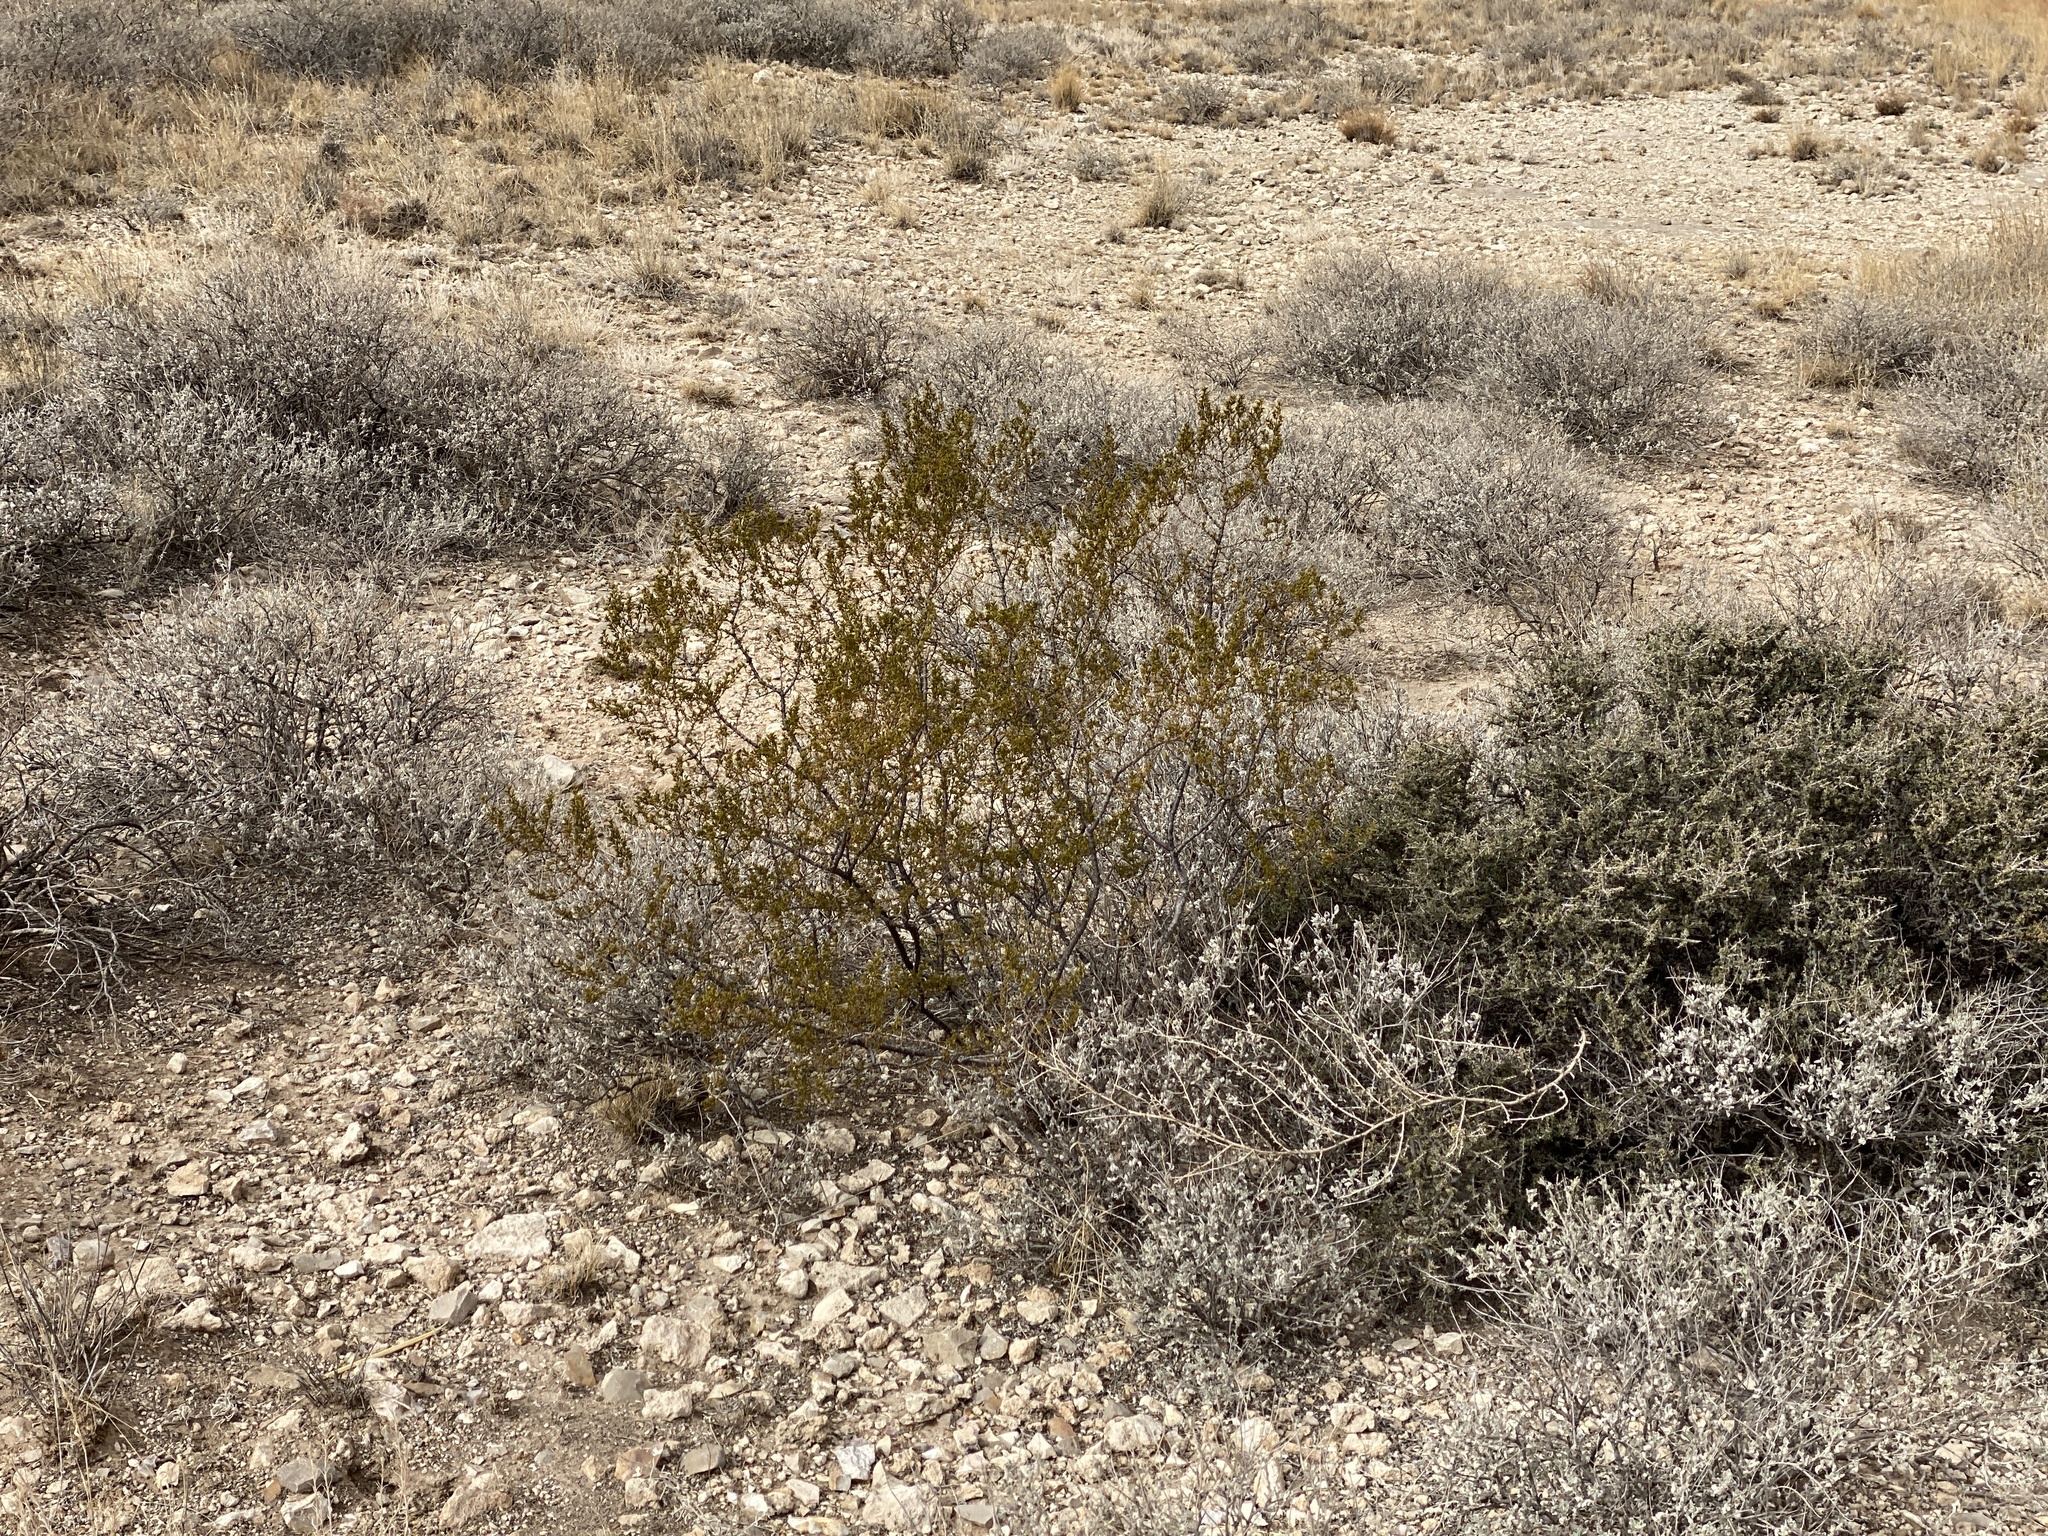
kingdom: Plantae
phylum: Tracheophyta
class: Magnoliopsida
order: Zygophyllales
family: Zygophyllaceae
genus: Larrea
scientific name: Larrea tridentata
